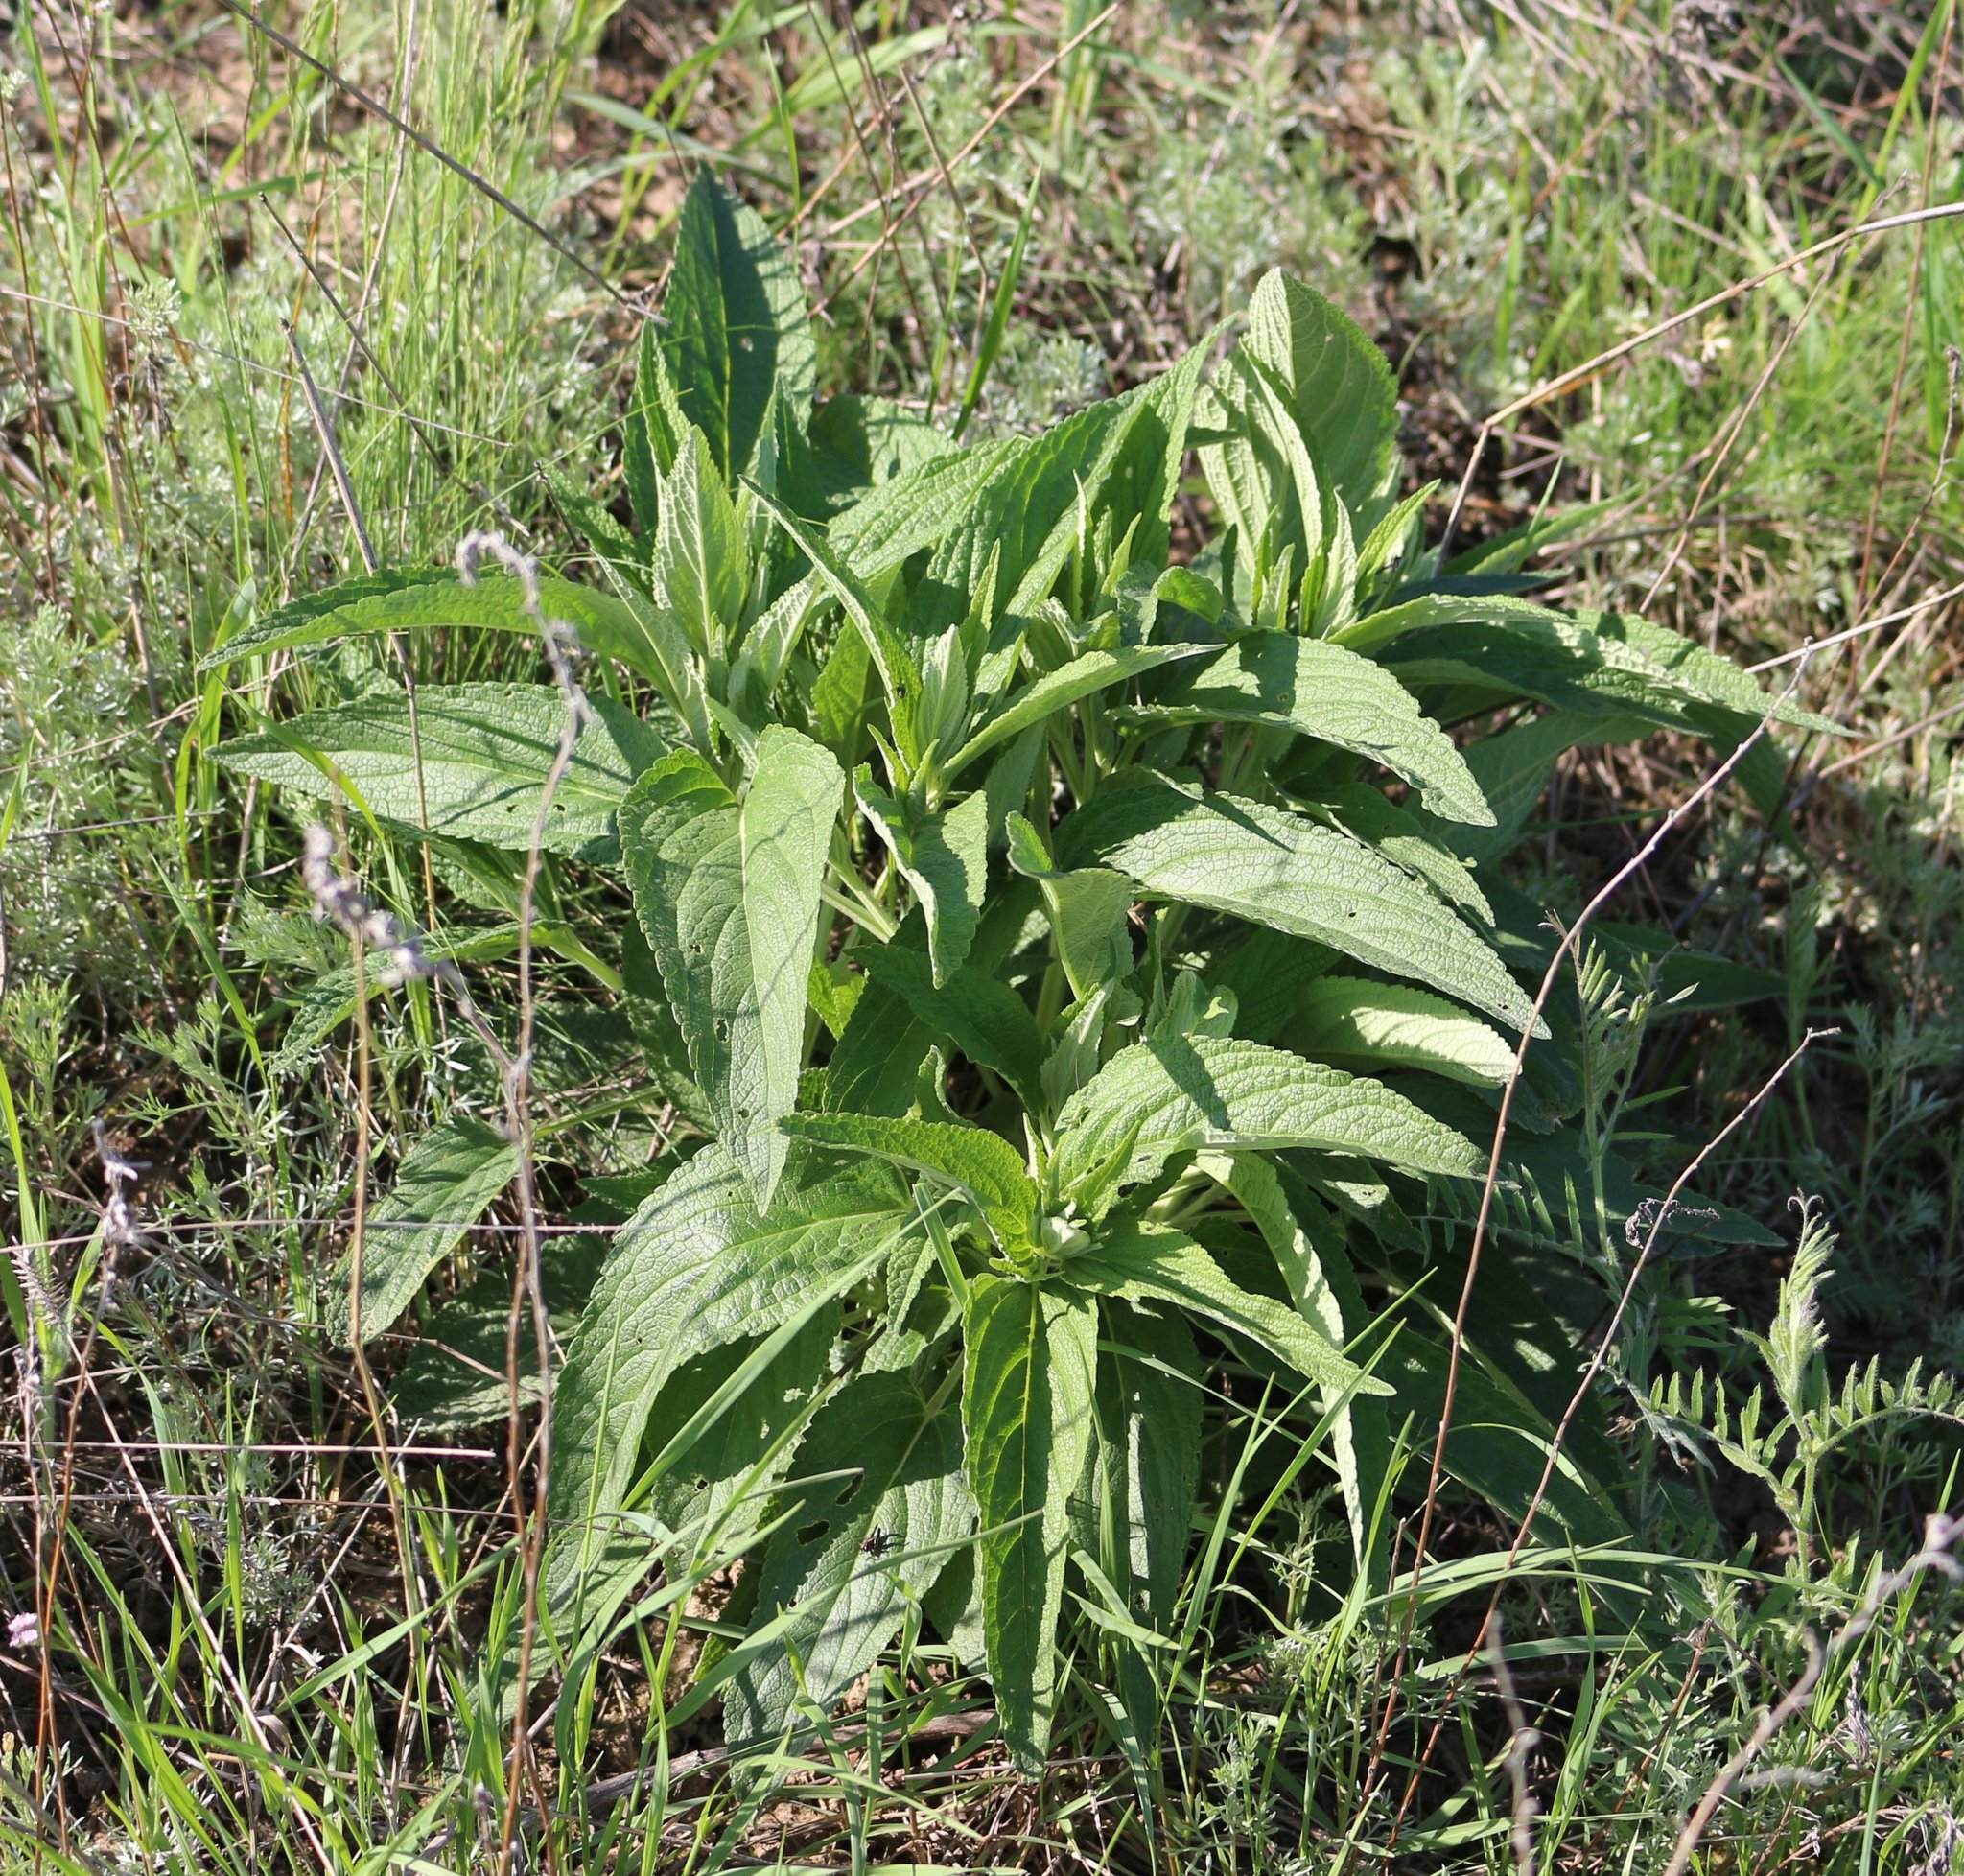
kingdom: Plantae
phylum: Tracheophyta
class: Magnoliopsida
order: Lamiales
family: Lamiaceae
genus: Phlomis
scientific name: Phlomis herba-venti
